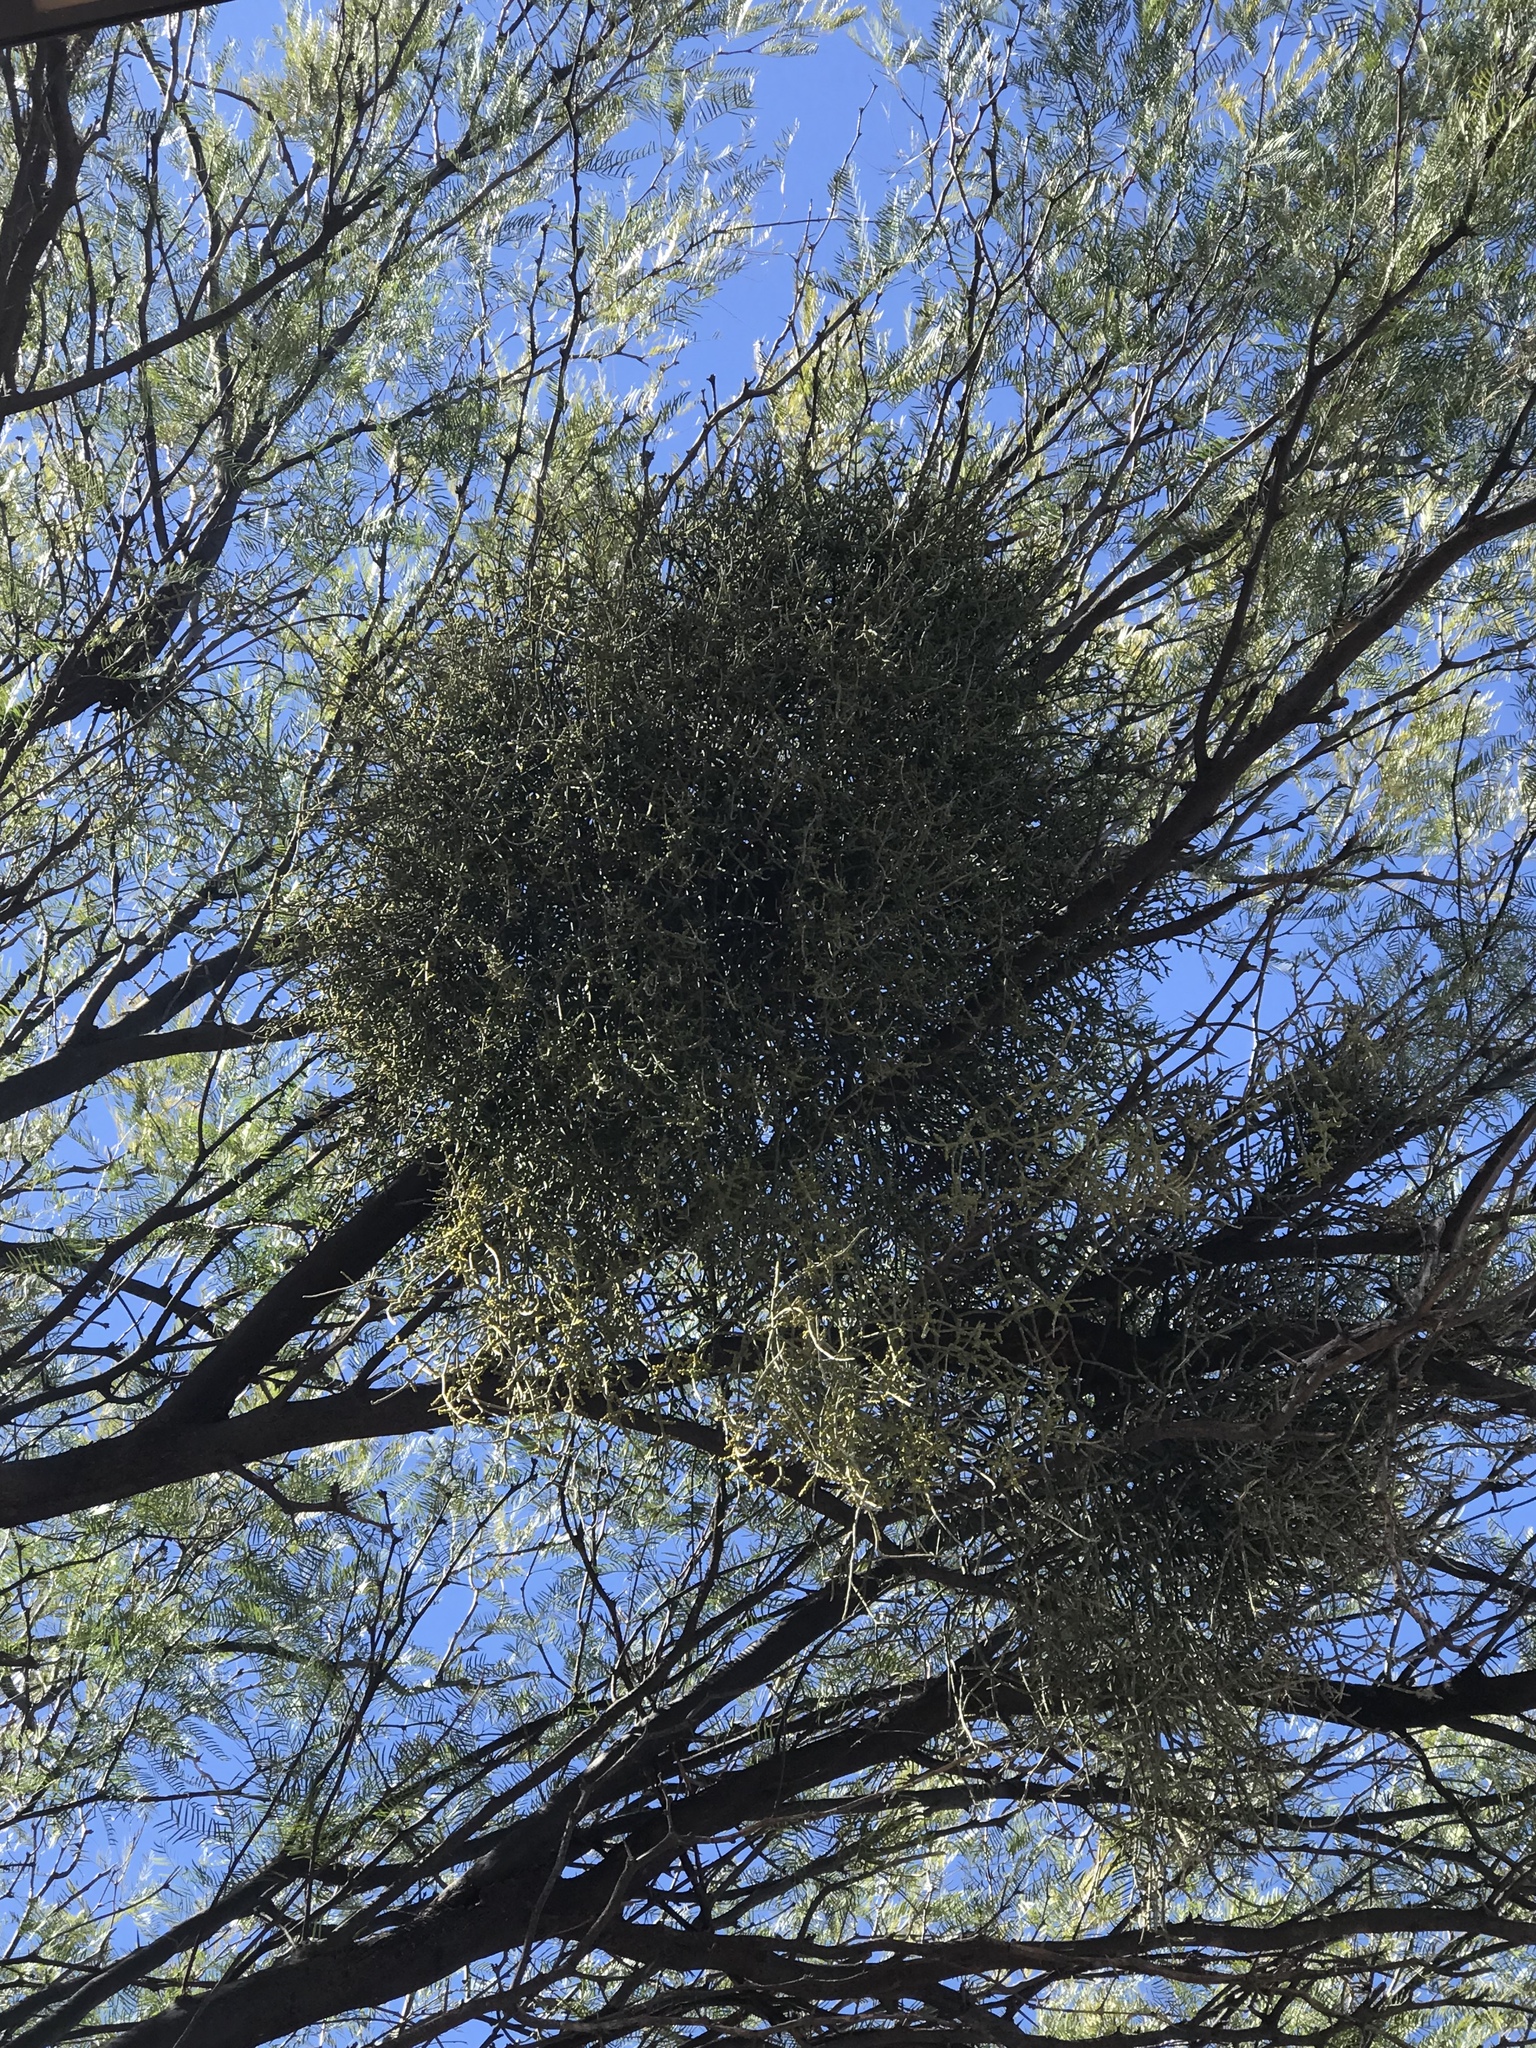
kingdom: Plantae
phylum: Tracheophyta
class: Magnoliopsida
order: Santalales
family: Viscaceae
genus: Phoradendron
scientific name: Phoradendron californicum
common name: Acacia mistletoe
